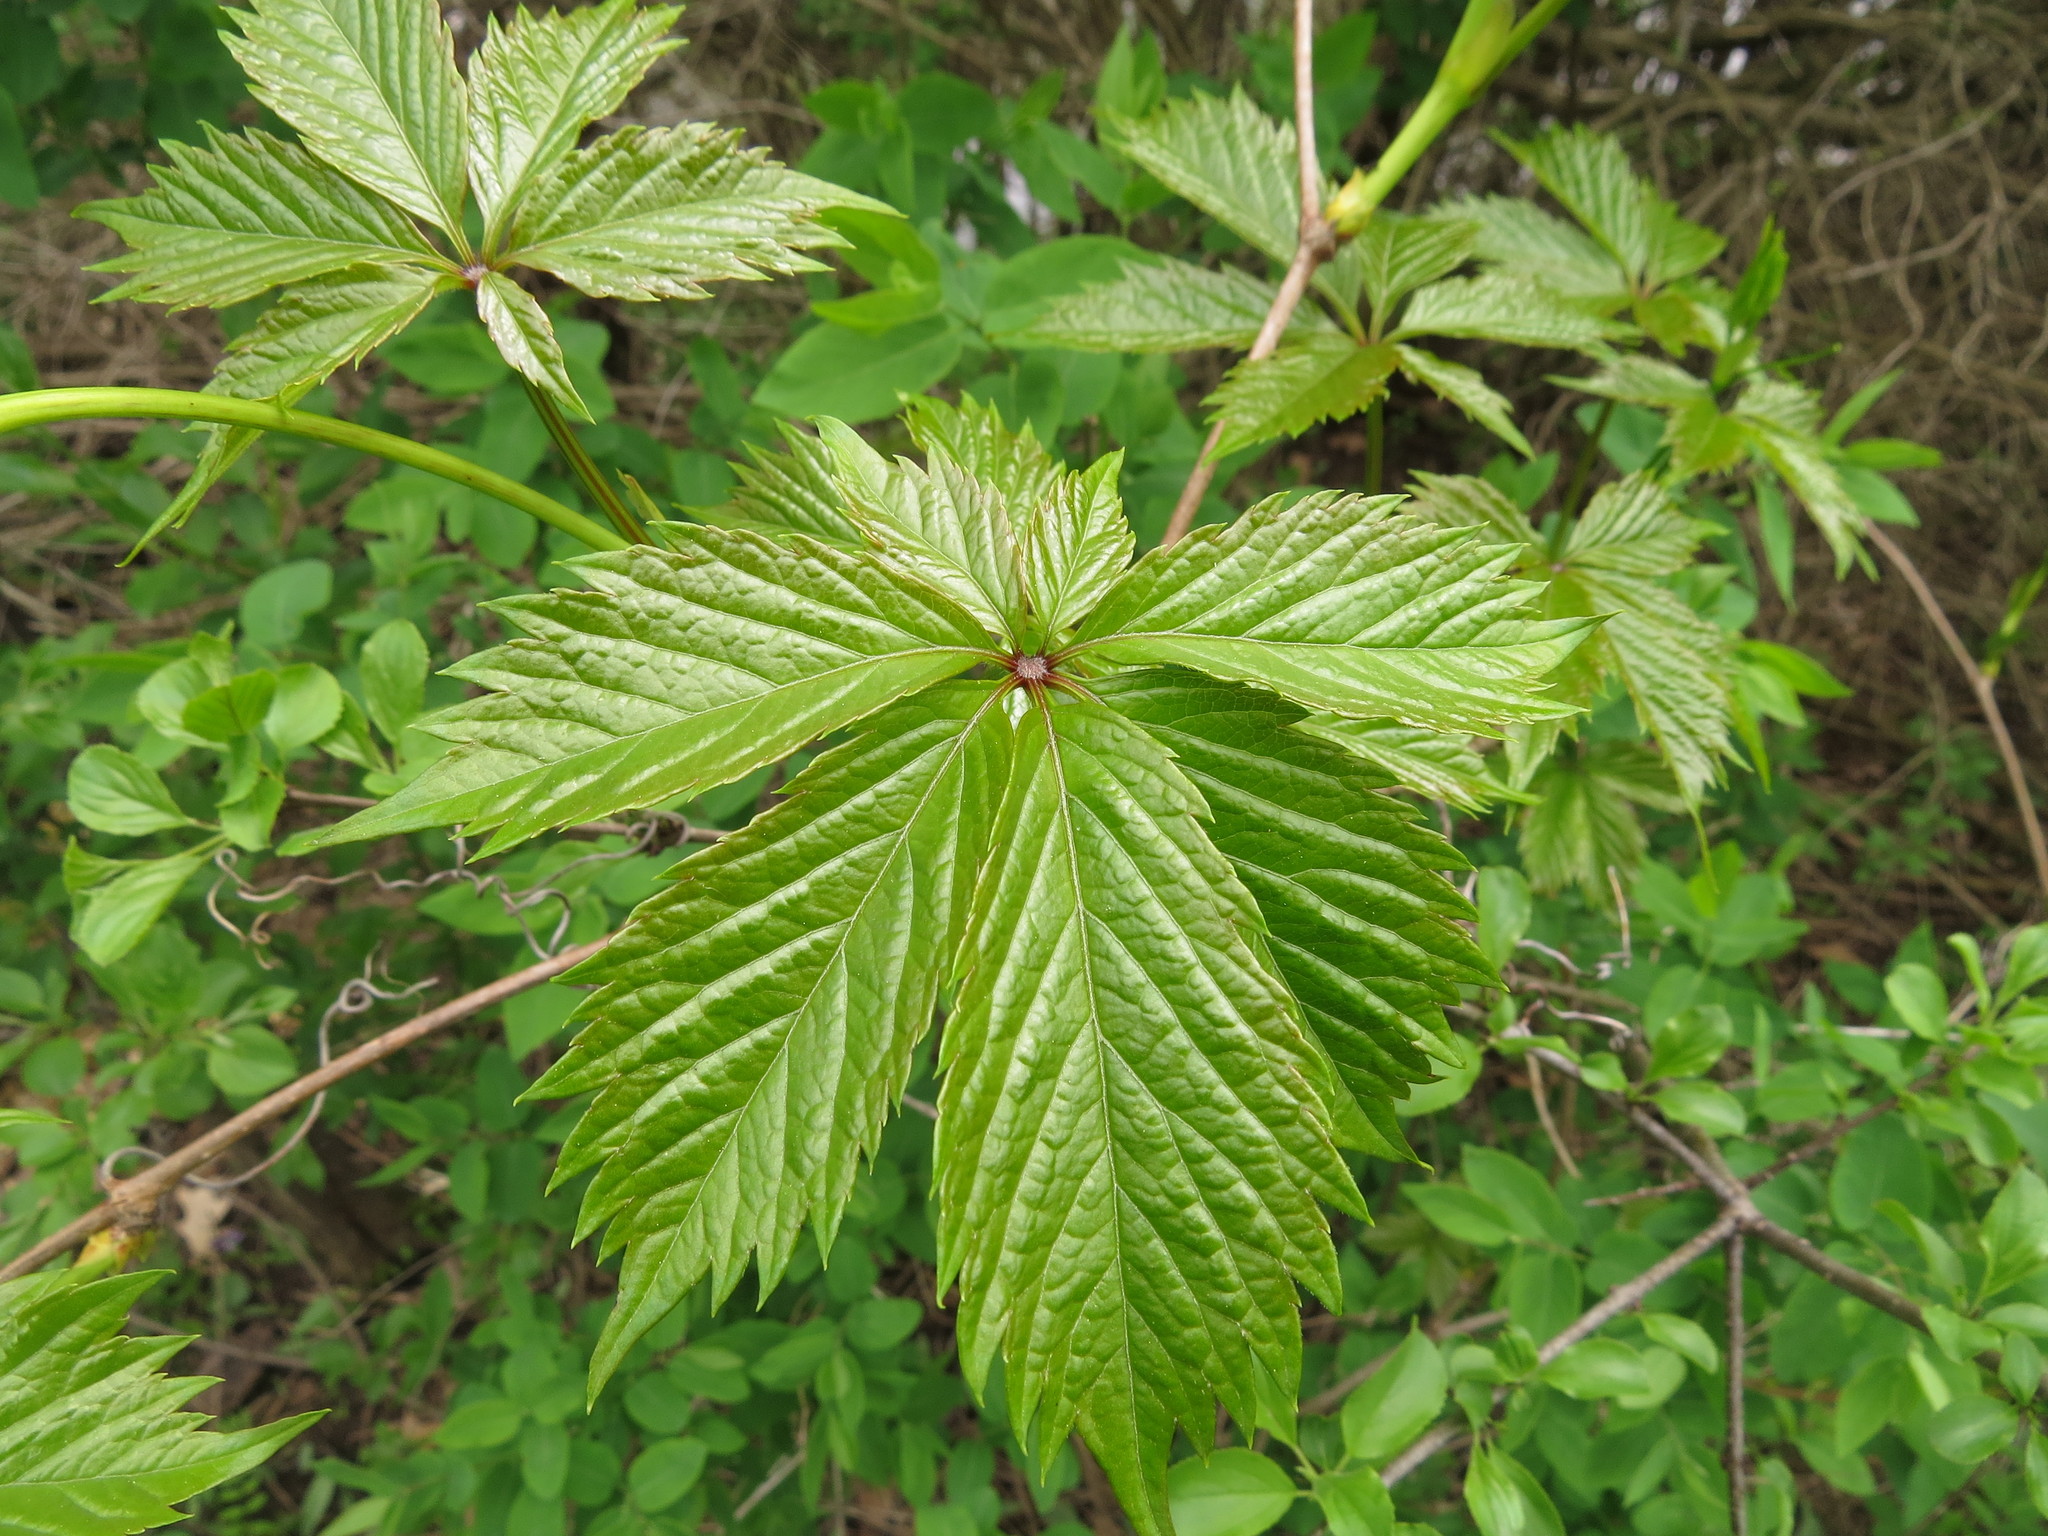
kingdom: Plantae
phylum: Tracheophyta
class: Magnoliopsida
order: Vitales
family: Vitaceae
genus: Parthenocissus
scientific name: Parthenocissus quinquefolia
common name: Virginia-creeper
